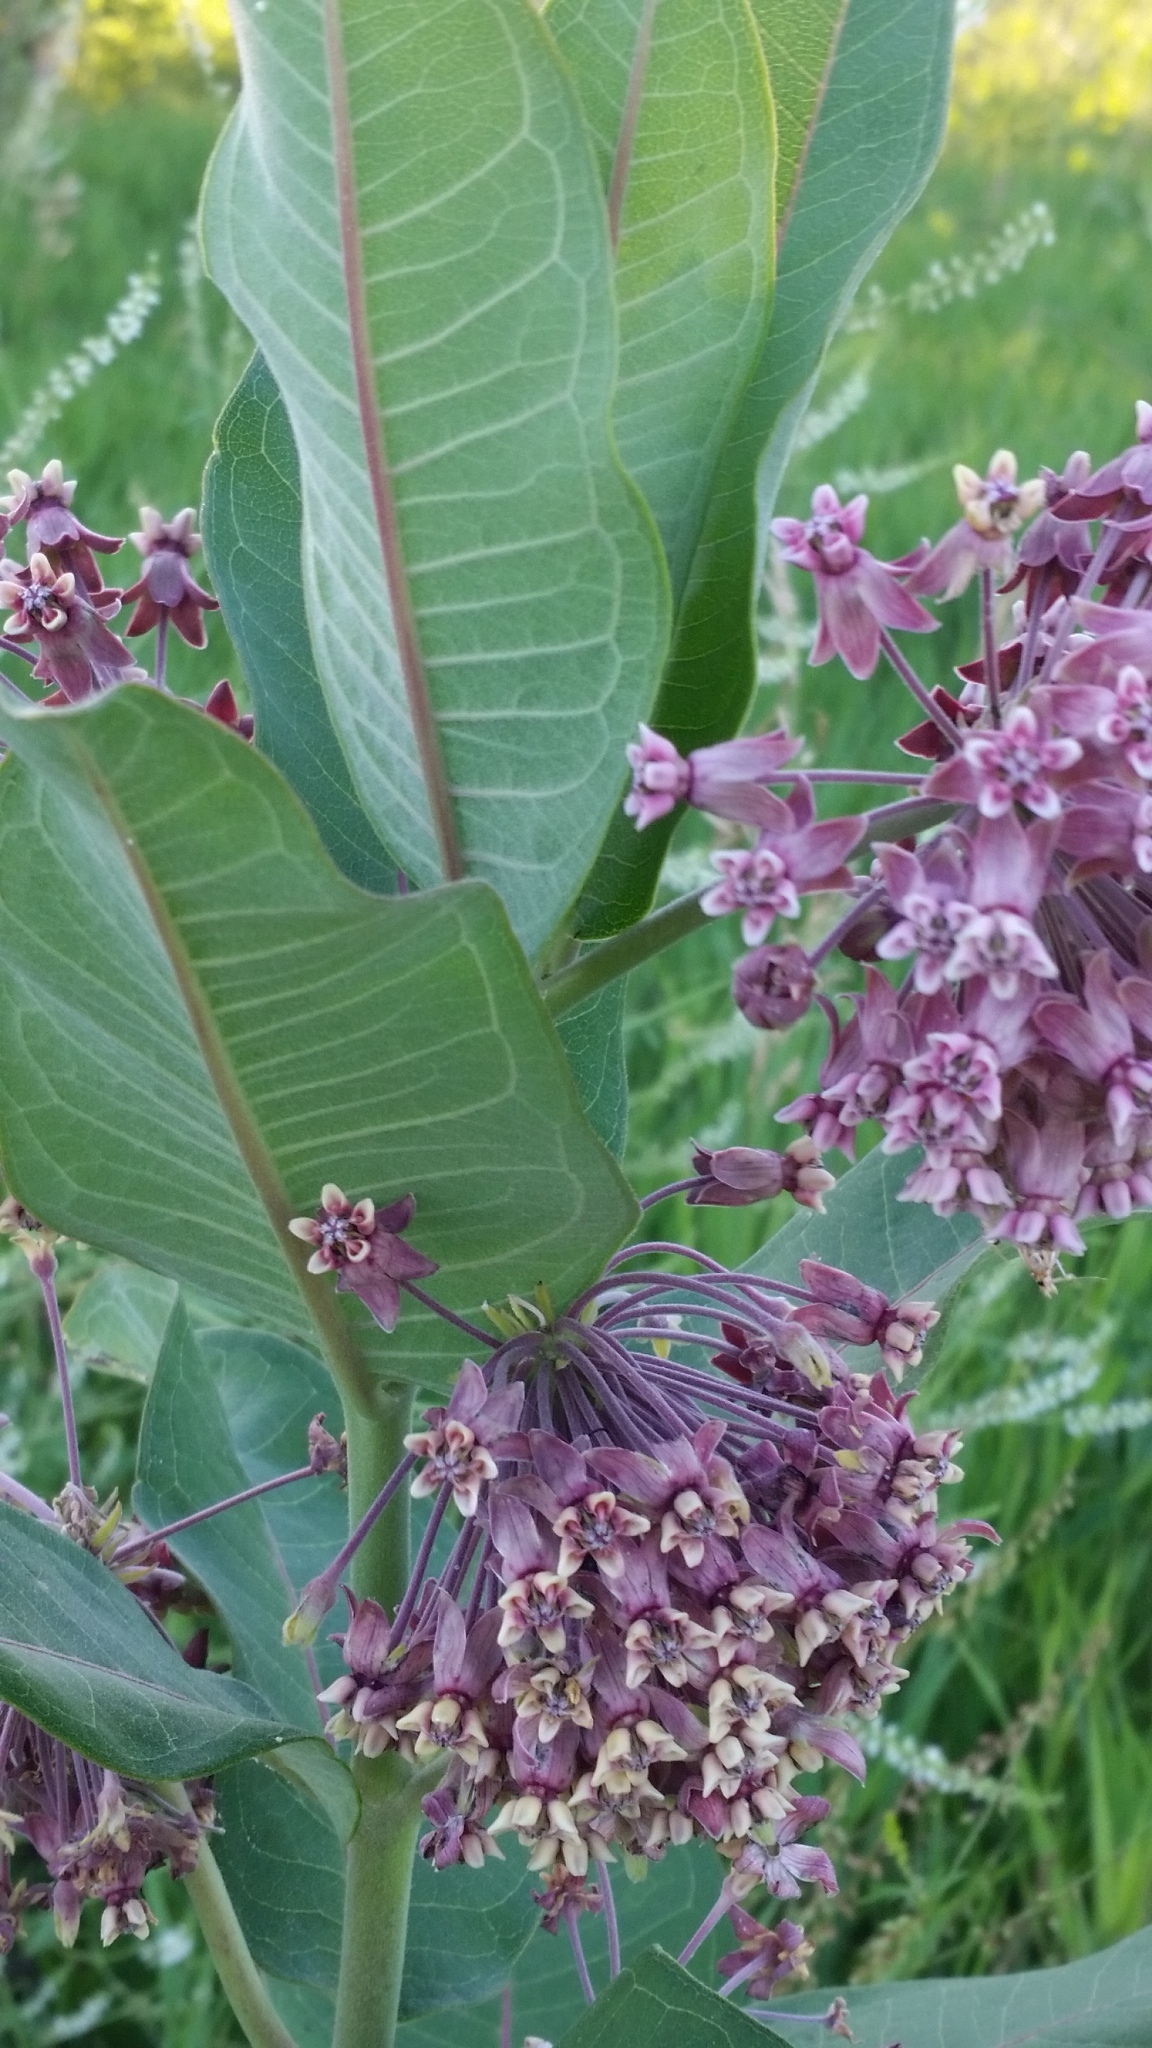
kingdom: Plantae
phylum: Tracheophyta
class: Magnoliopsida
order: Gentianales
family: Apocynaceae
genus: Asclepias
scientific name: Asclepias syriaca
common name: Common milkweed
